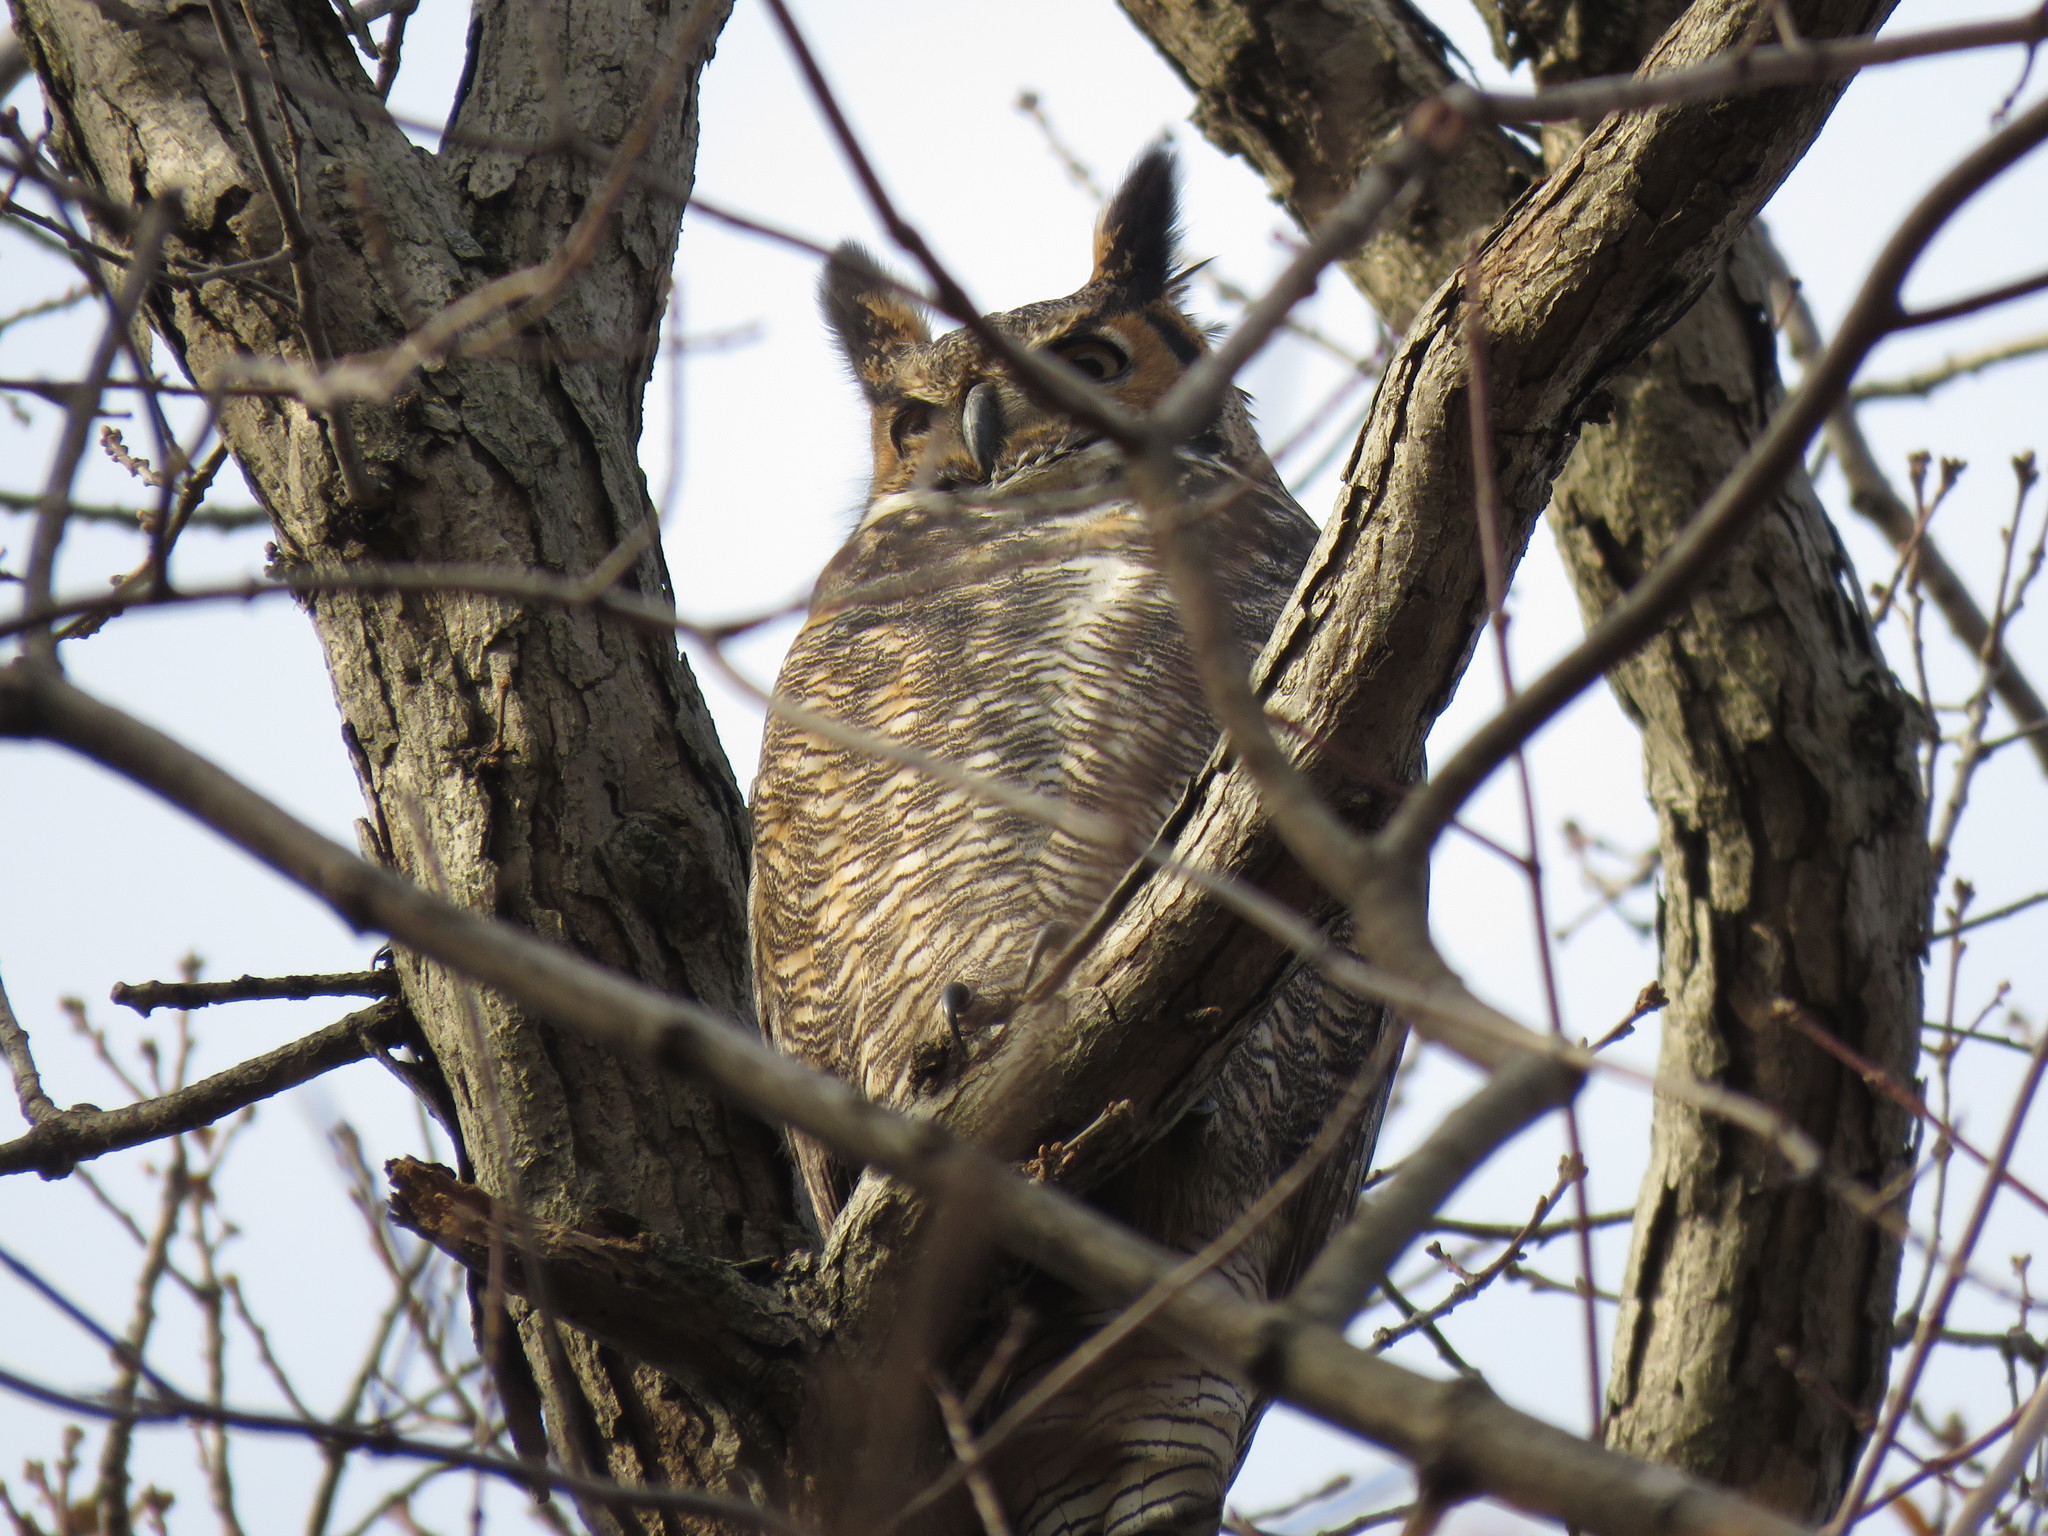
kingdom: Animalia
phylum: Chordata
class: Aves
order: Strigiformes
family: Strigidae
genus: Bubo
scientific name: Bubo virginianus
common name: Great horned owl
